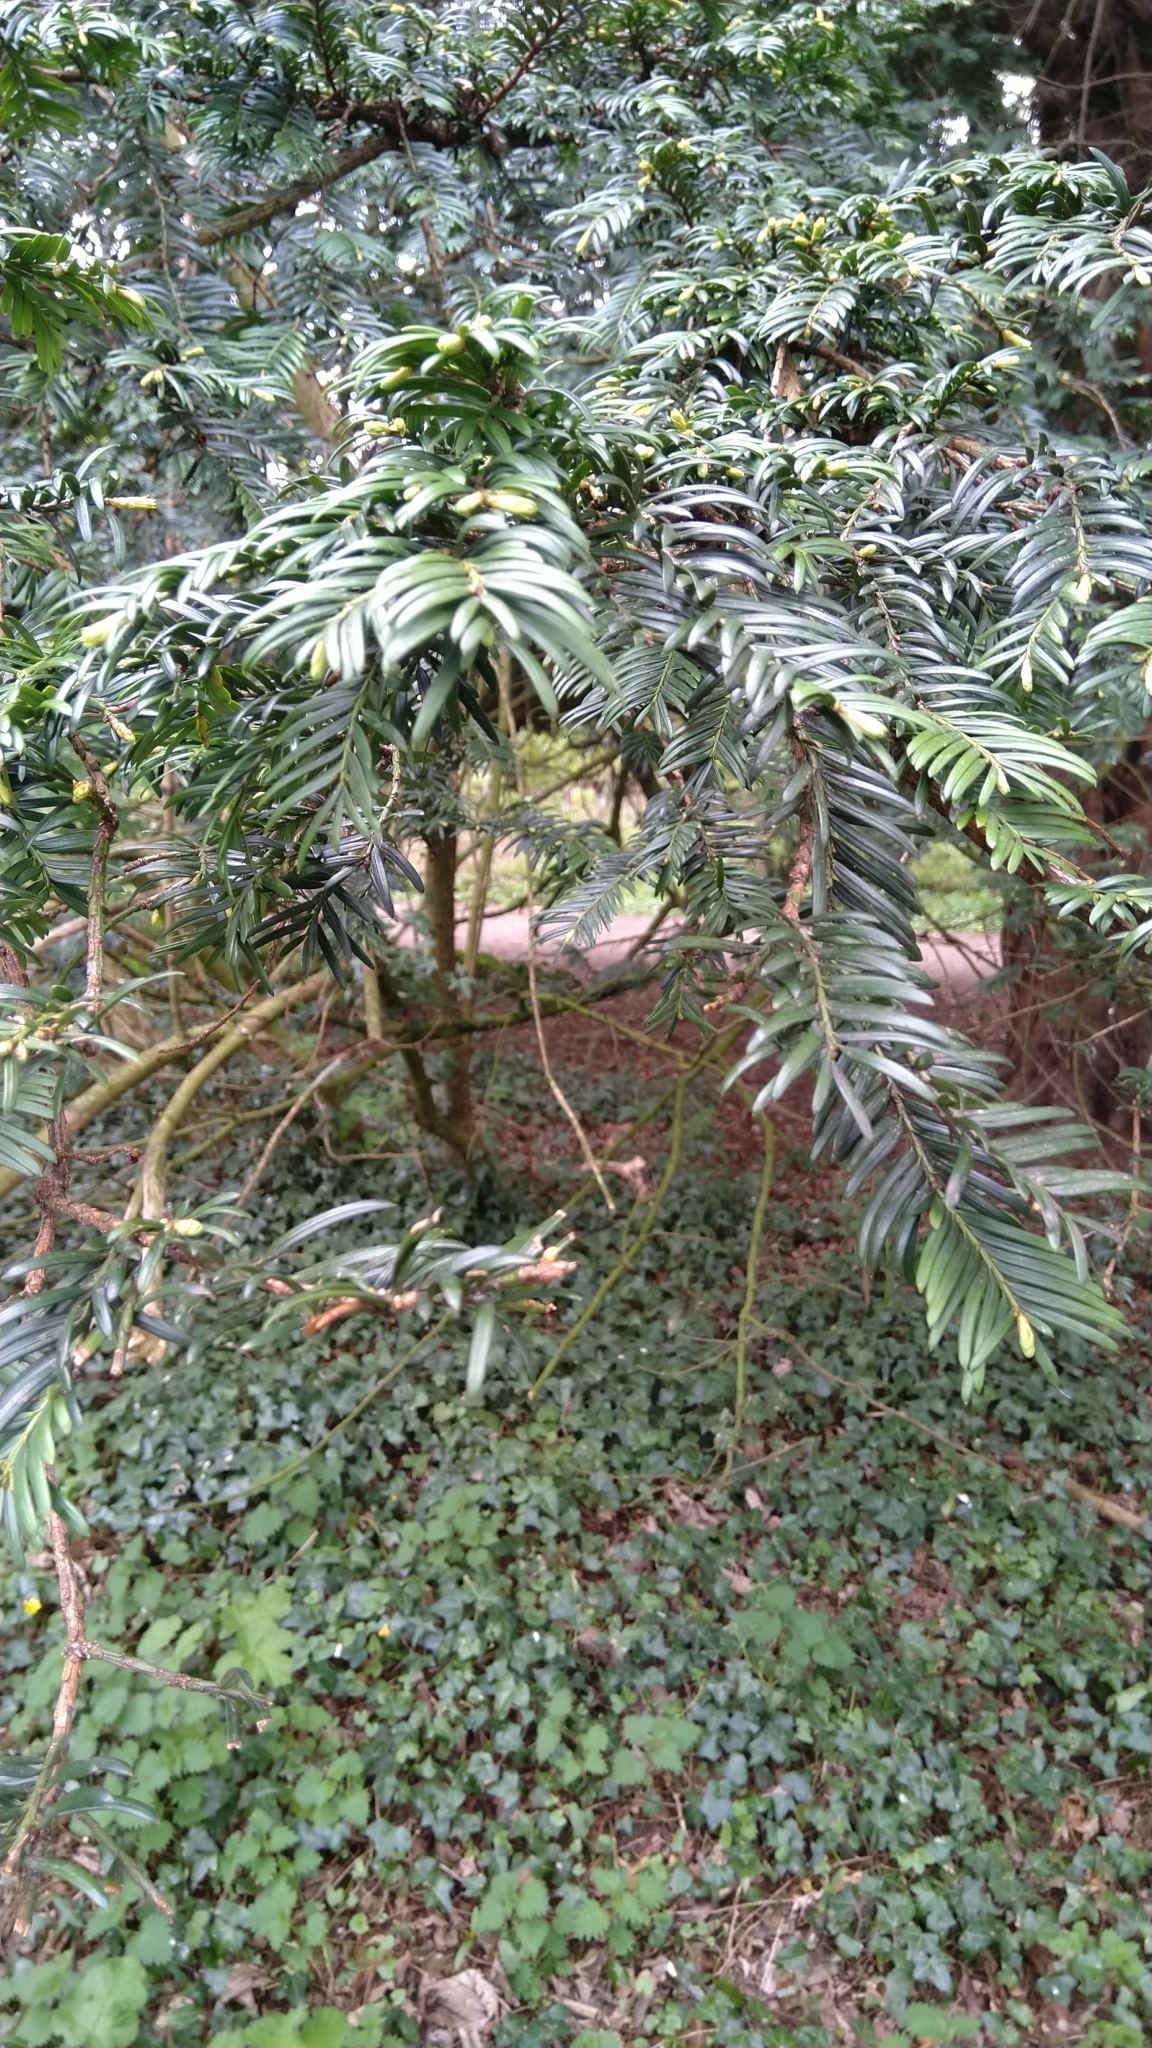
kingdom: Plantae
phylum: Tracheophyta
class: Pinopsida
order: Pinales
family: Taxaceae
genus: Taxus
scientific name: Taxus baccata
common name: Yew
